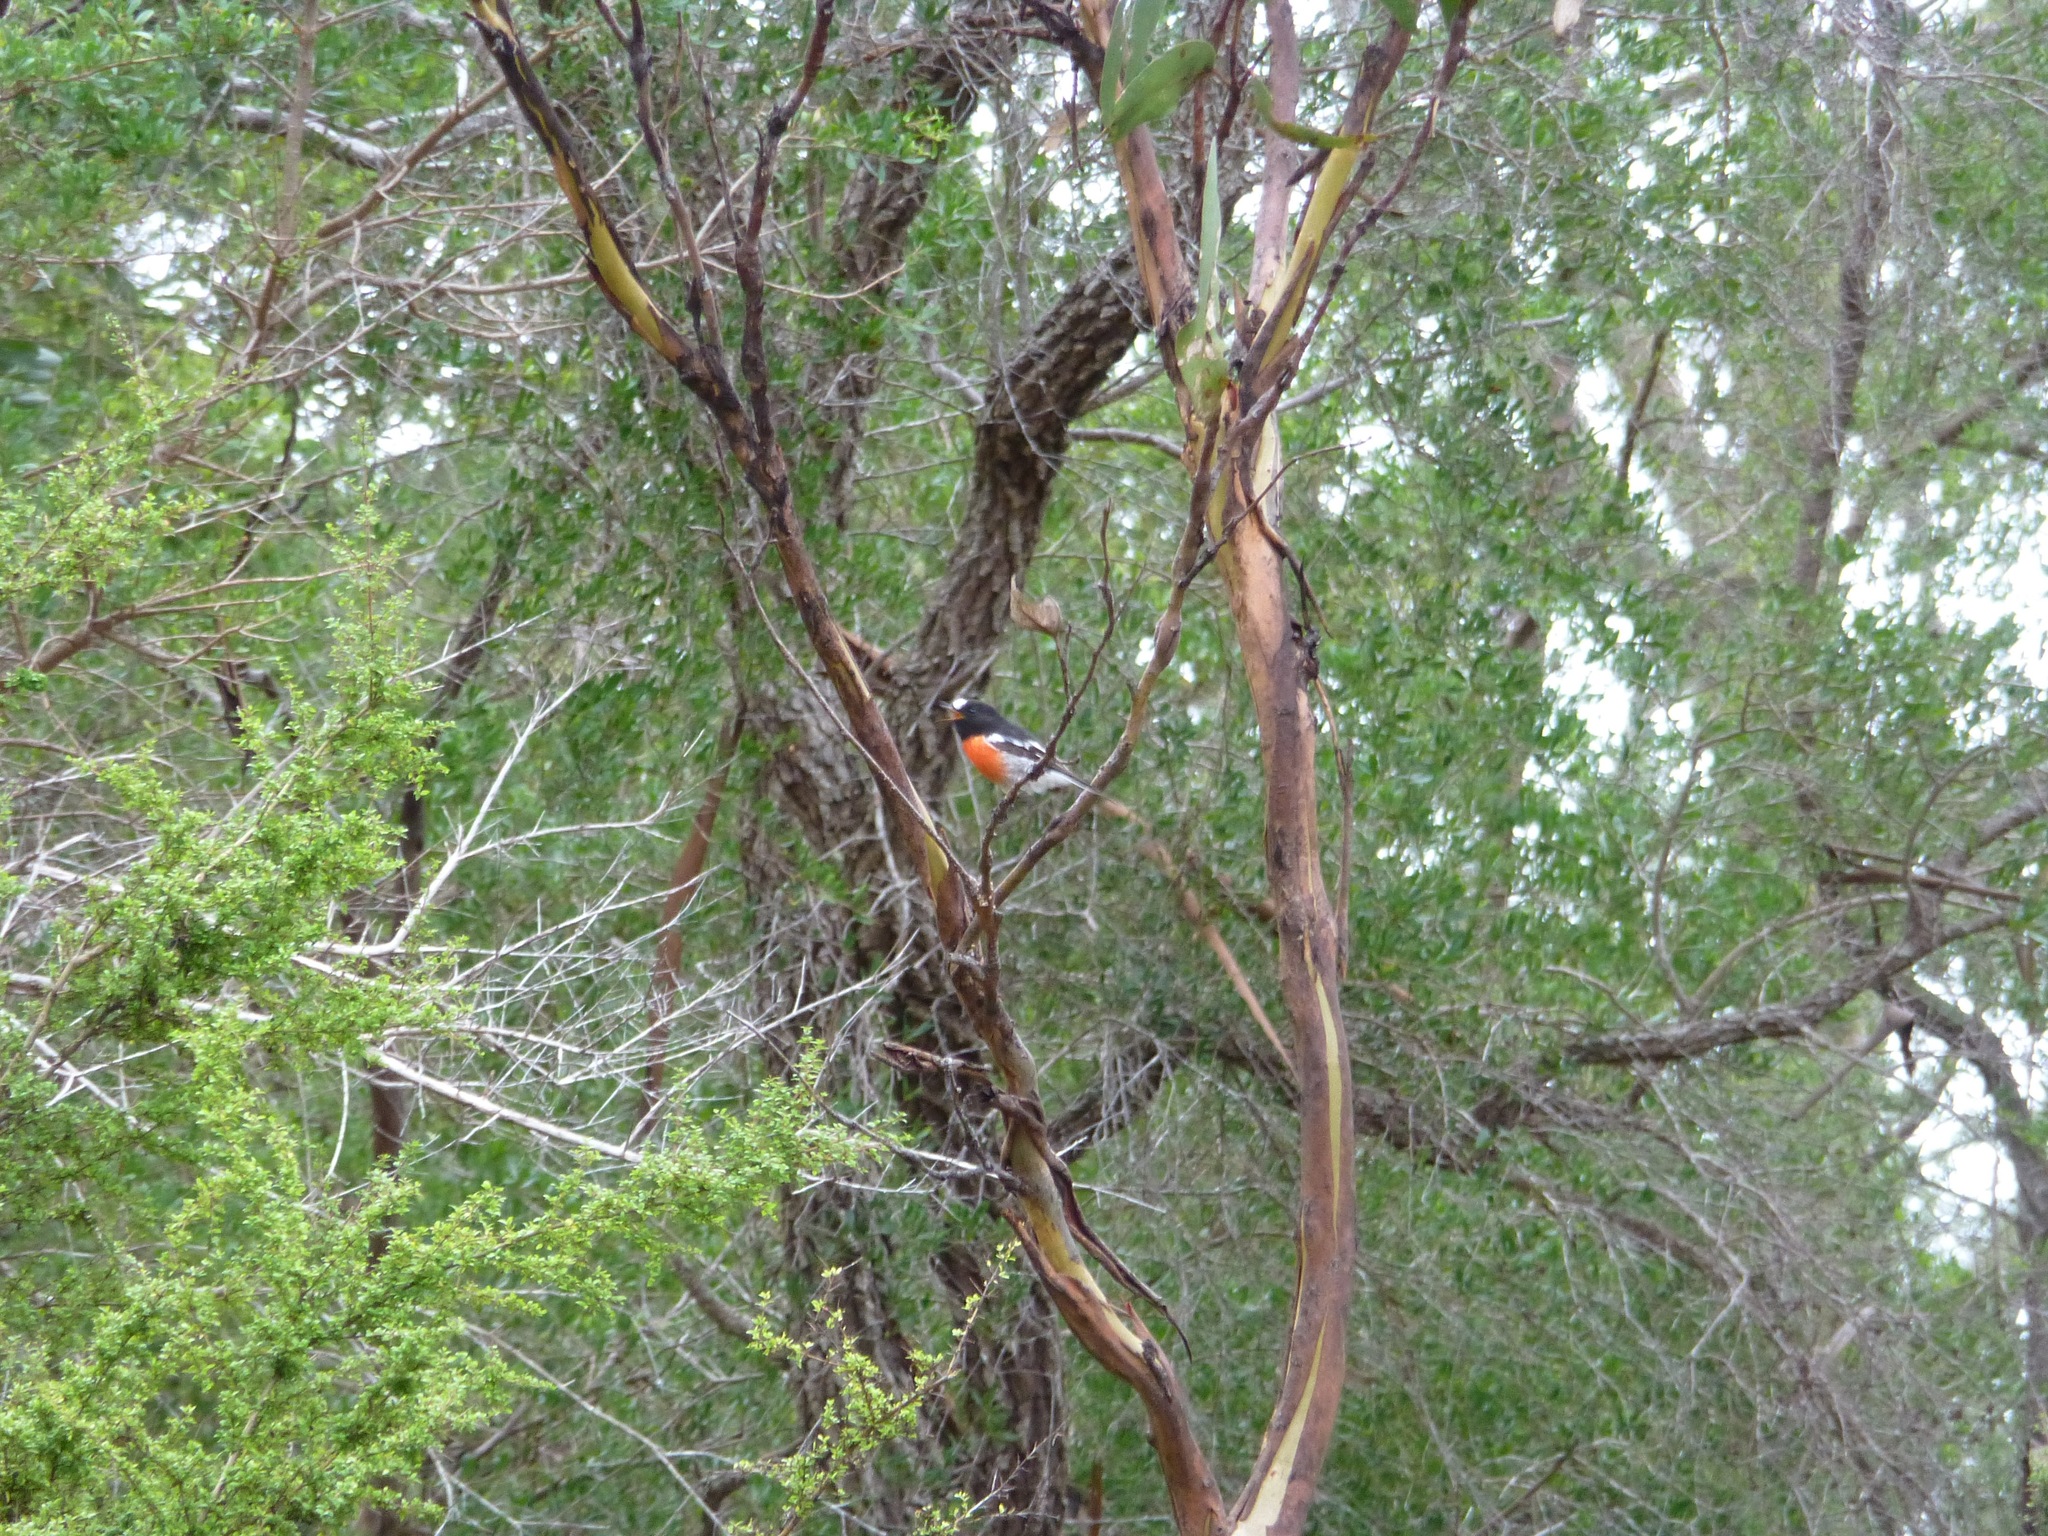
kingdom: Animalia
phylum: Chordata
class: Aves
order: Passeriformes
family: Petroicidae
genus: Petroica
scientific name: Petroica boodang
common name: Scarlet robin
